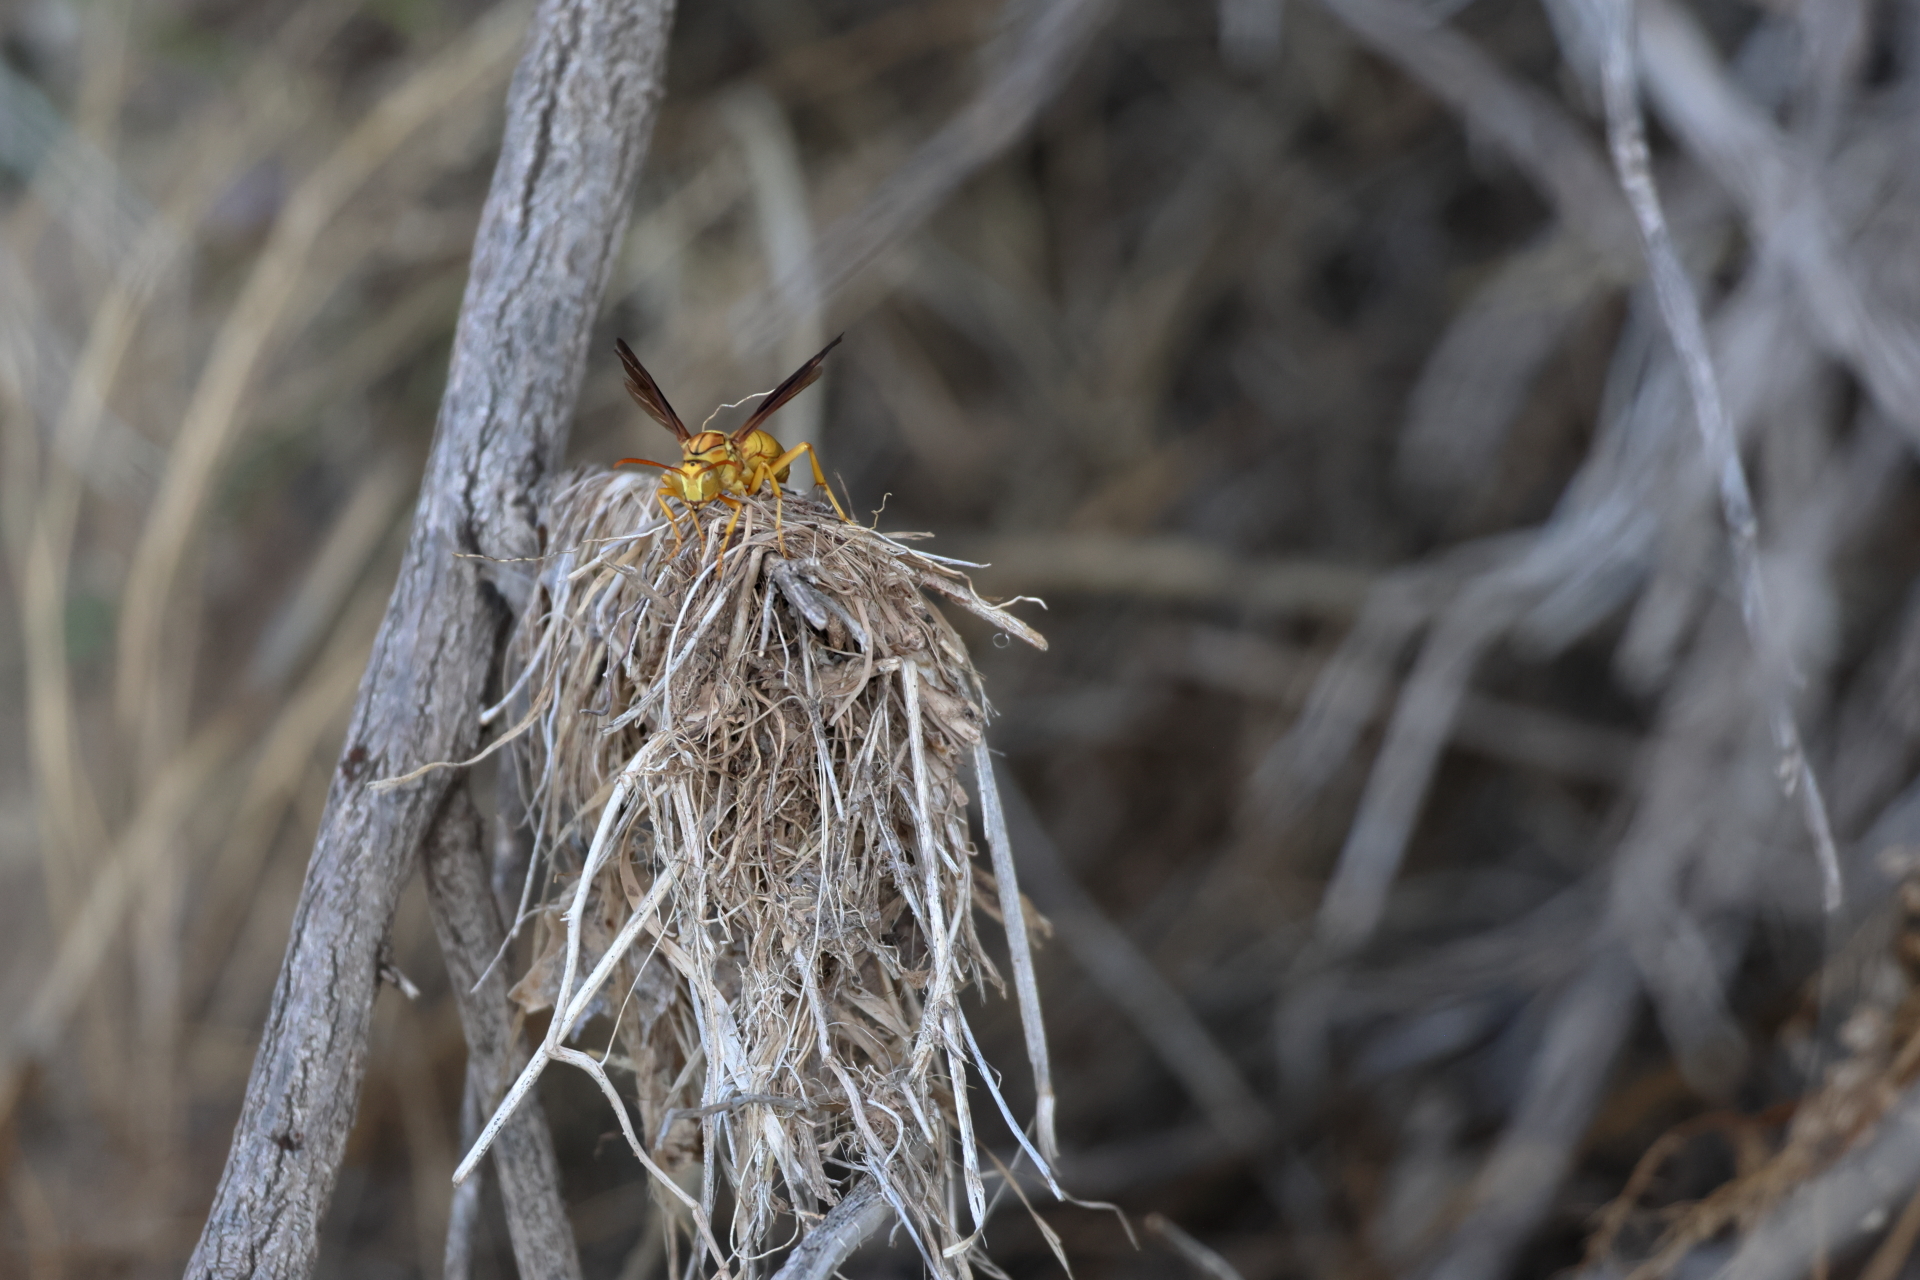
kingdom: Animalia
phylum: Arthropoda
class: Insecta
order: Hymenoptera
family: Eumenidae
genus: Polistes
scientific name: Polistes flavus
